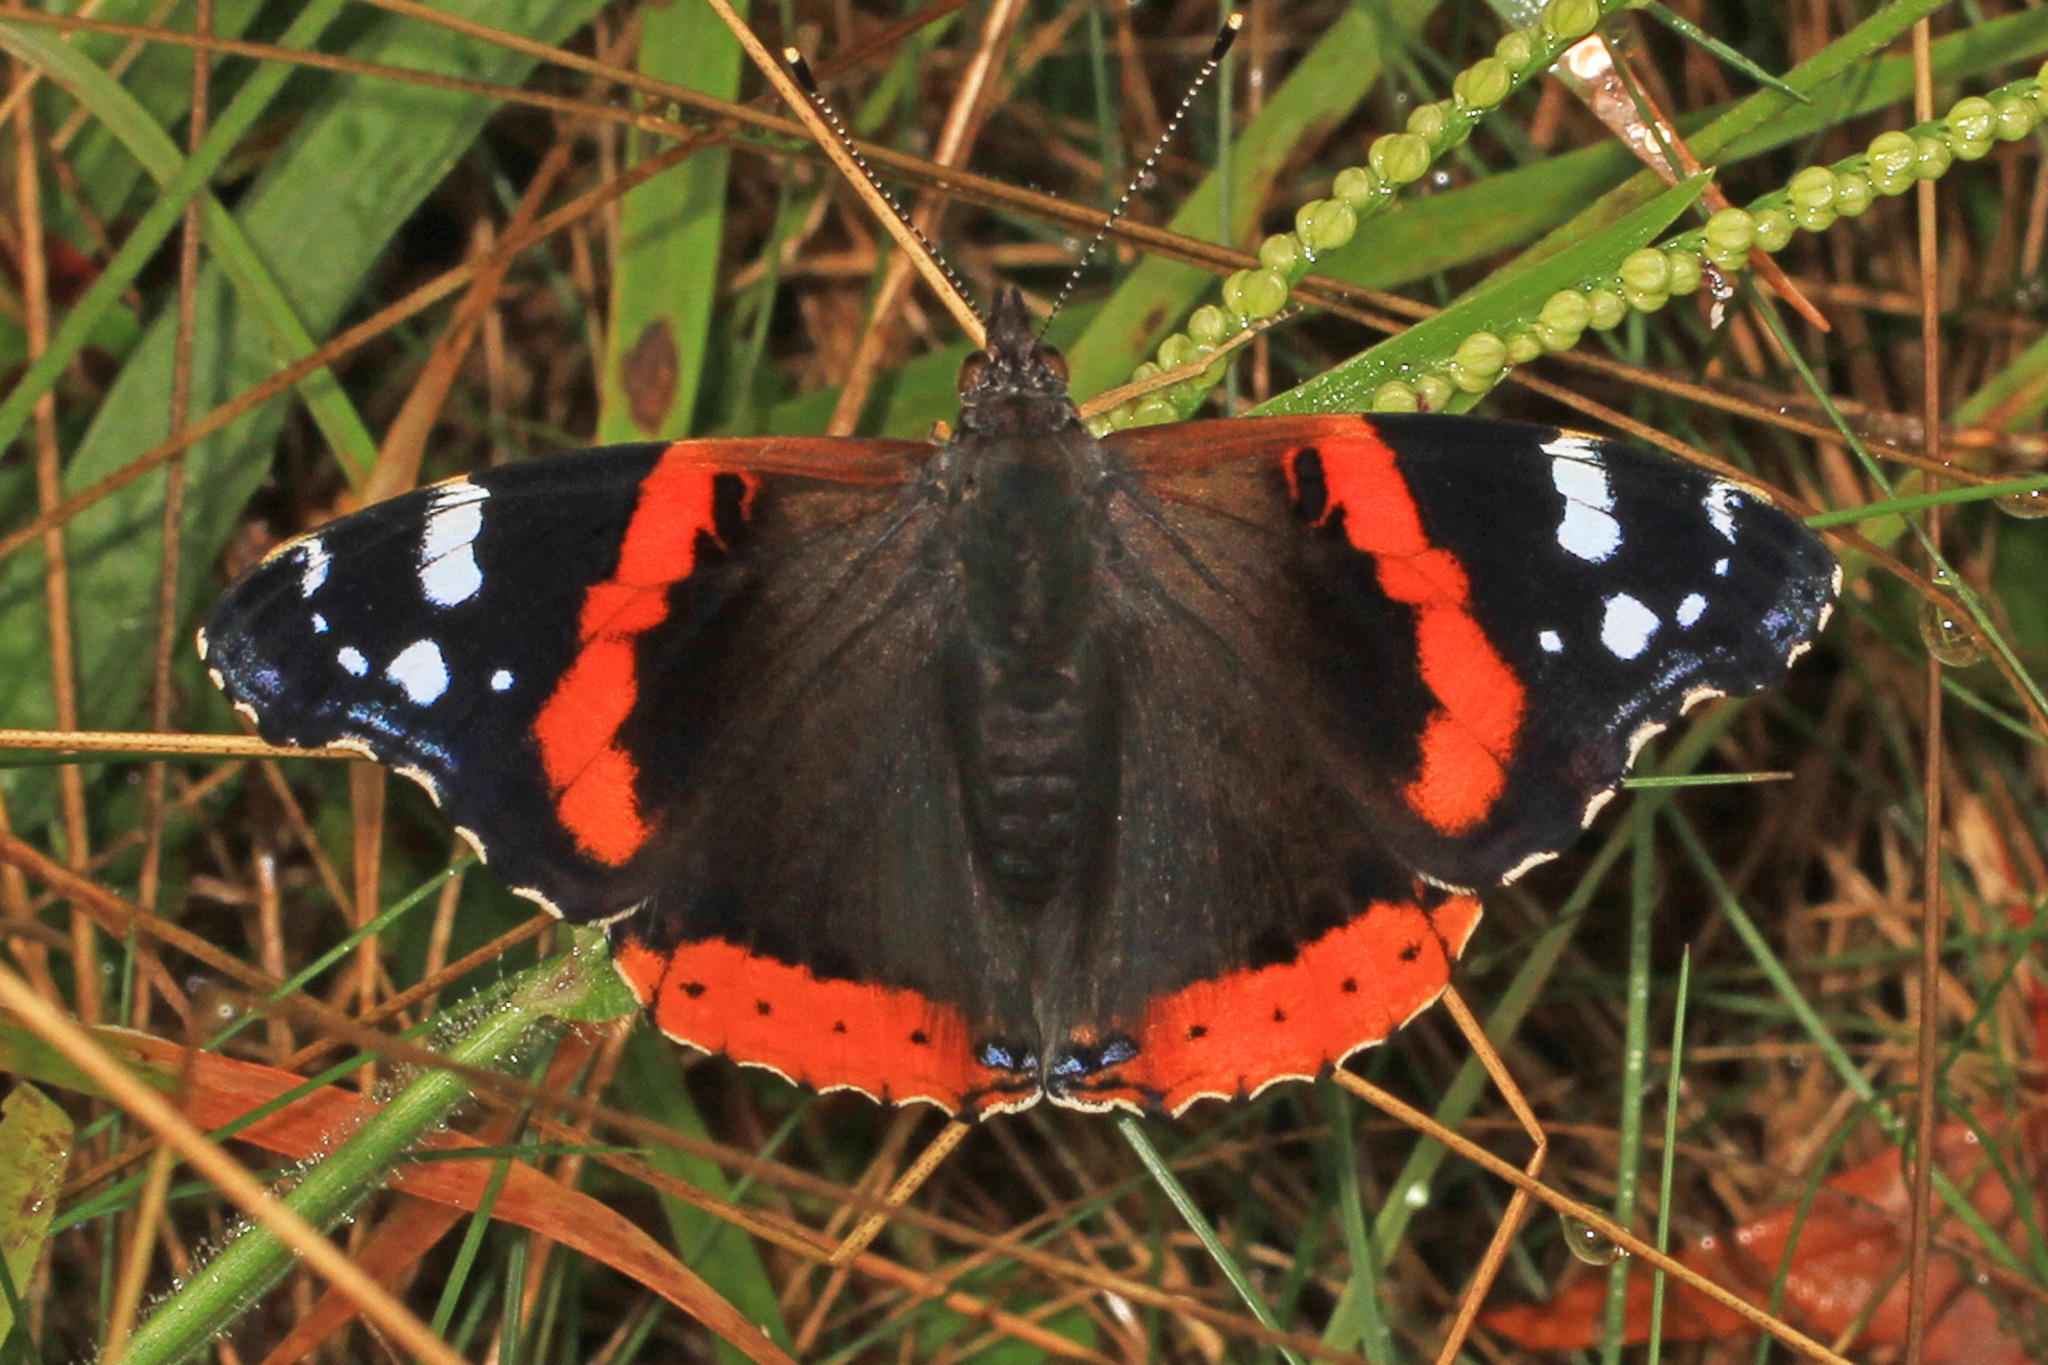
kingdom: Animalia
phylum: Arthropoda
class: Insecta
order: Lepidoptera
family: Nymphalidae
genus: Vanessa
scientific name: Vanessa atalanta
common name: Red admiral
